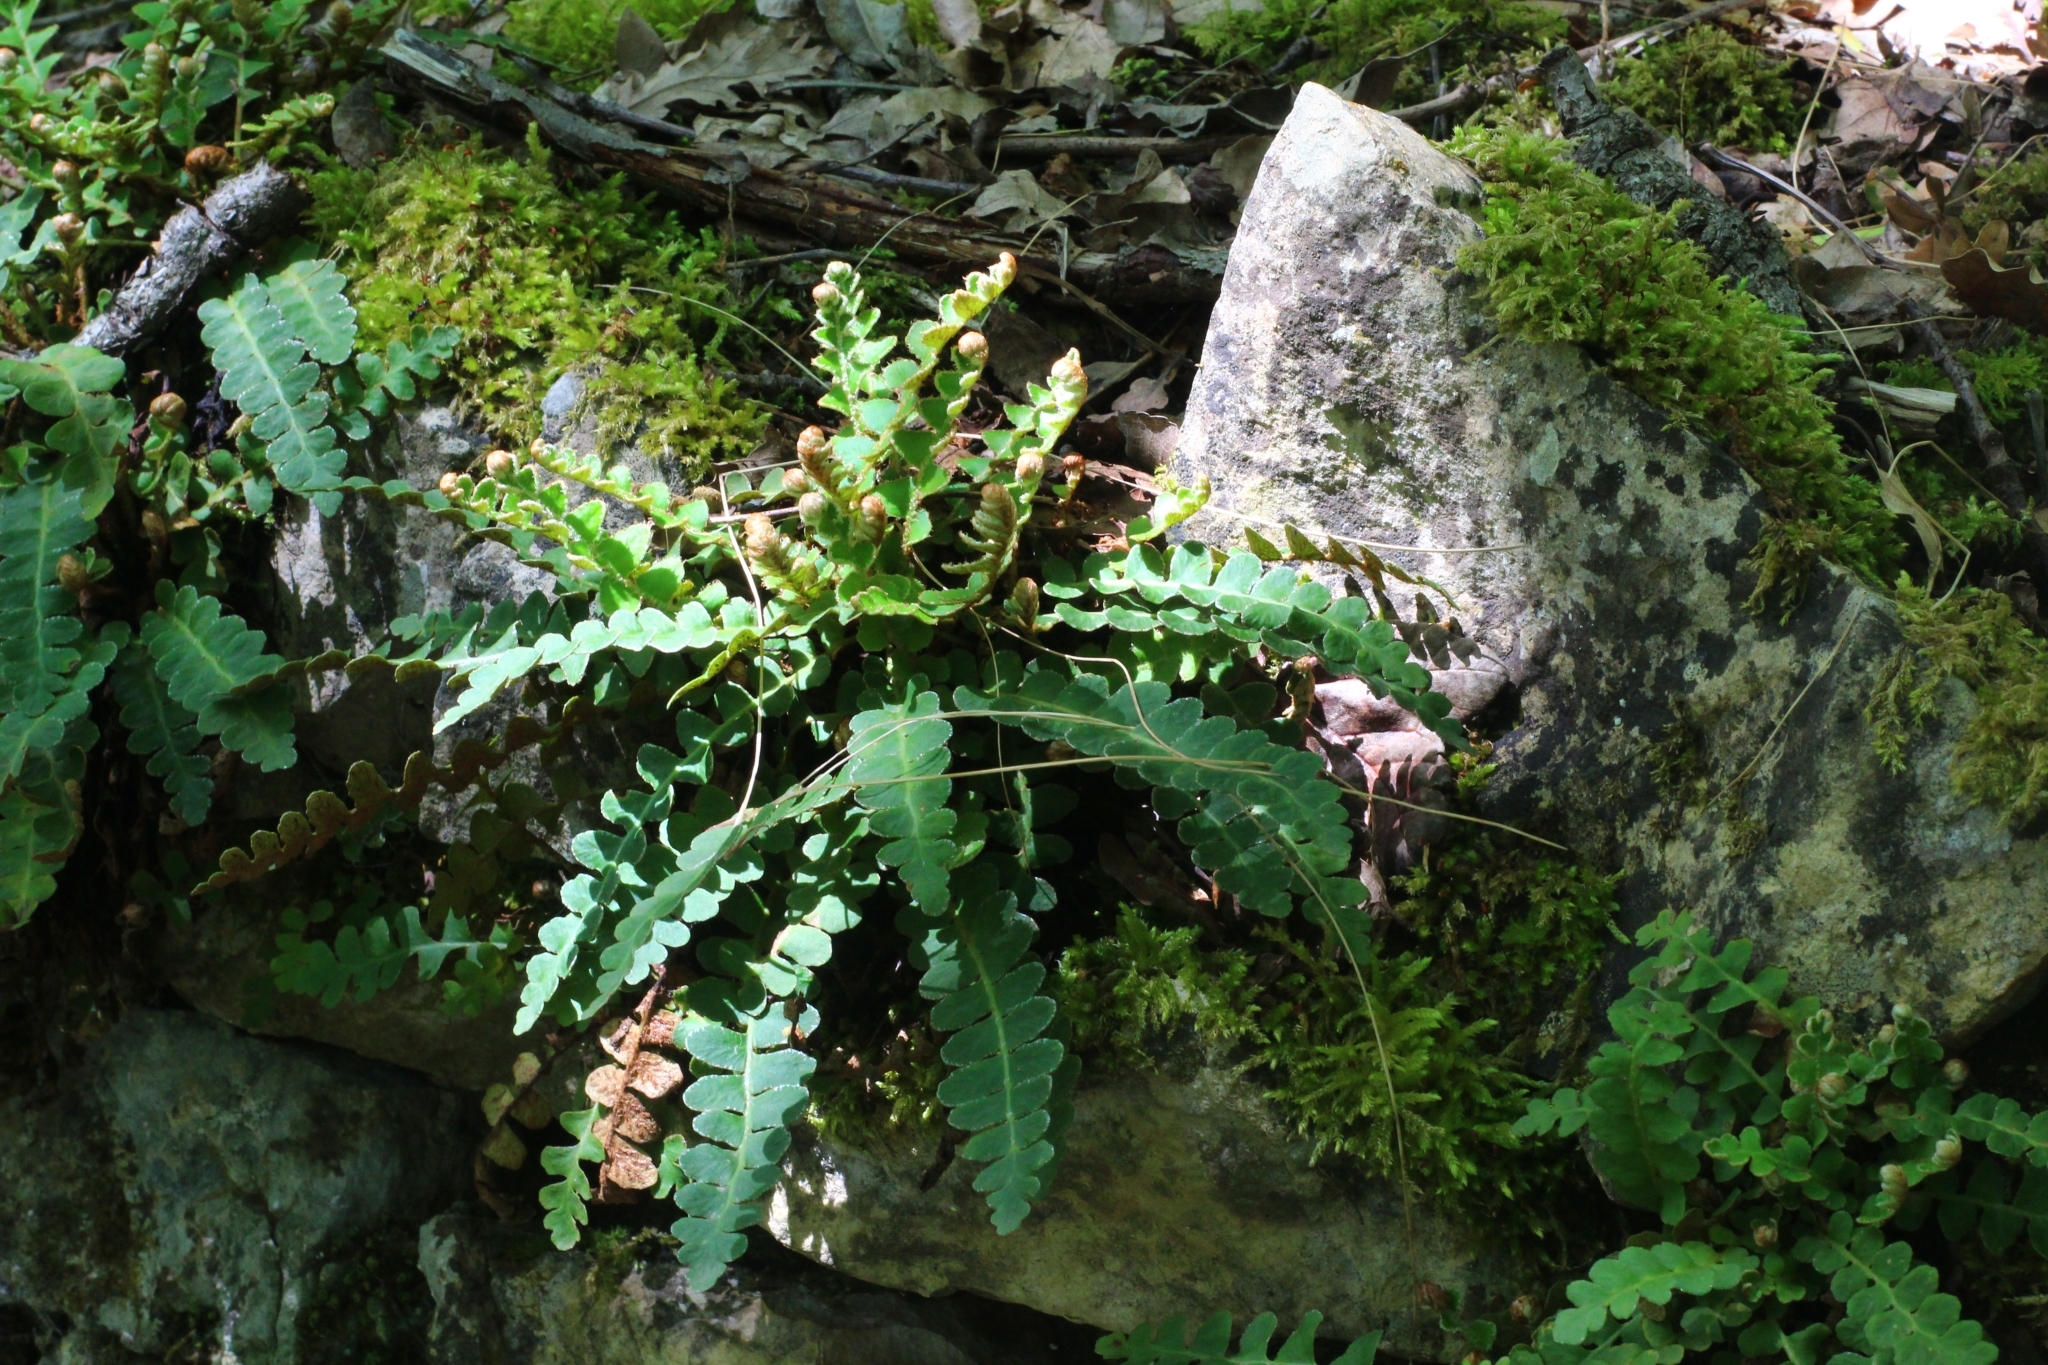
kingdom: Plantae
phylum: Tracheophyta
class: Polypodiopsida
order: Polypodiales
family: Aspleniaceae
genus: Asplenium
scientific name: Asplenium ceterach
